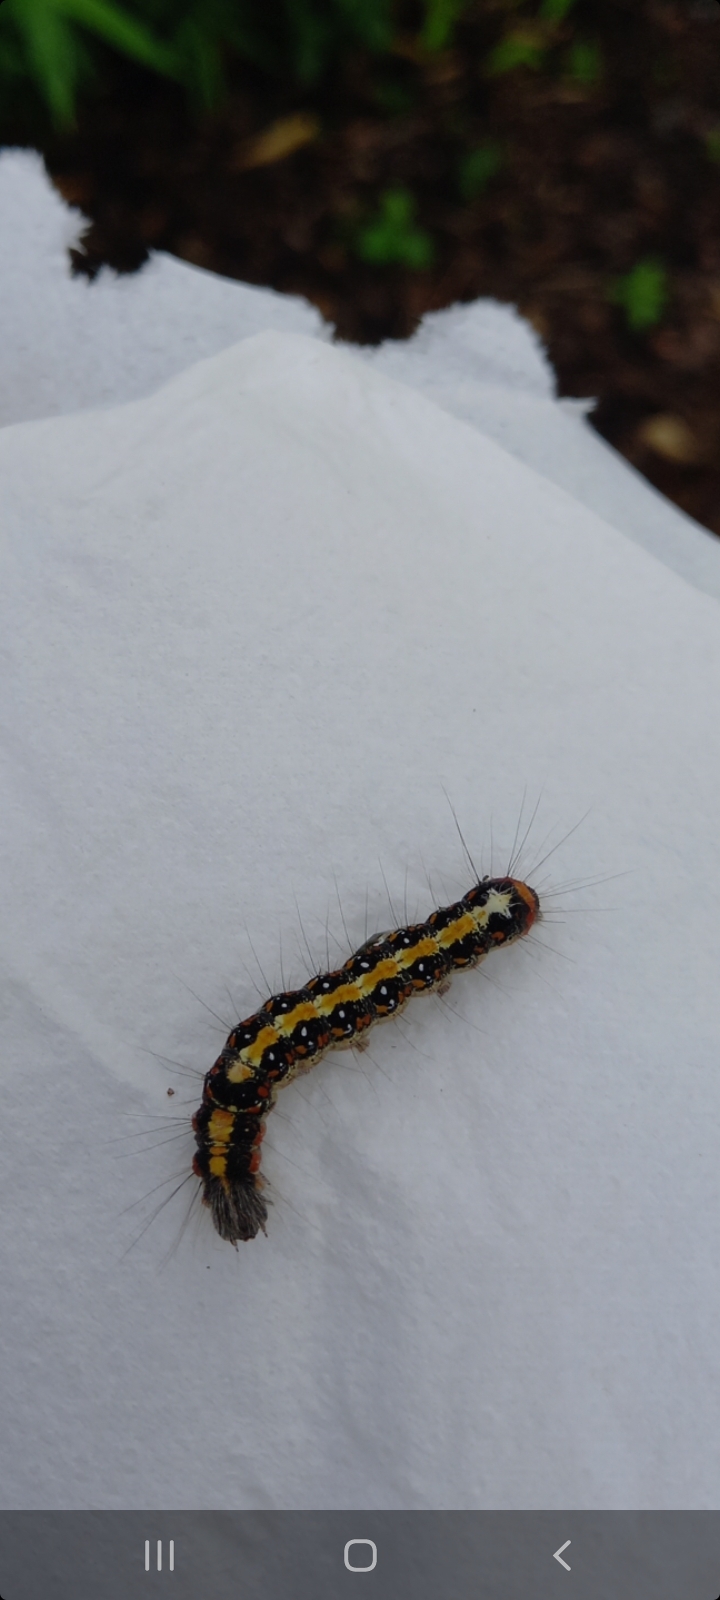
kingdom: Animalia
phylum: Arthropoda
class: Insecta
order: Lepidoptera
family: Noctuidae
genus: Acronicta
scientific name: Acronicta tridens
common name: Dark dagger
